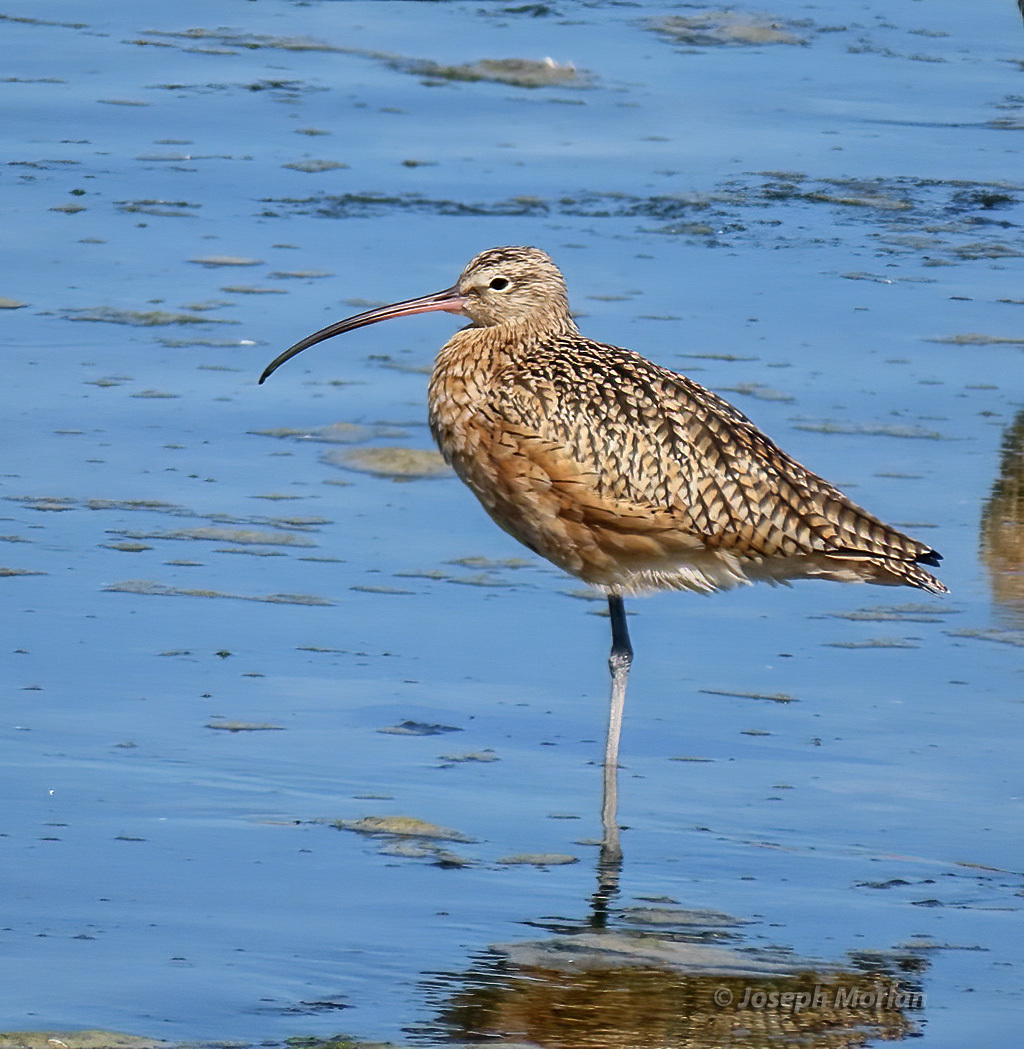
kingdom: Animalia
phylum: Chordata
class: Aves
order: Charadriiformes
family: Scolopacidae
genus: Numenius
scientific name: Numenius americanus
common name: Long-billed curlew
